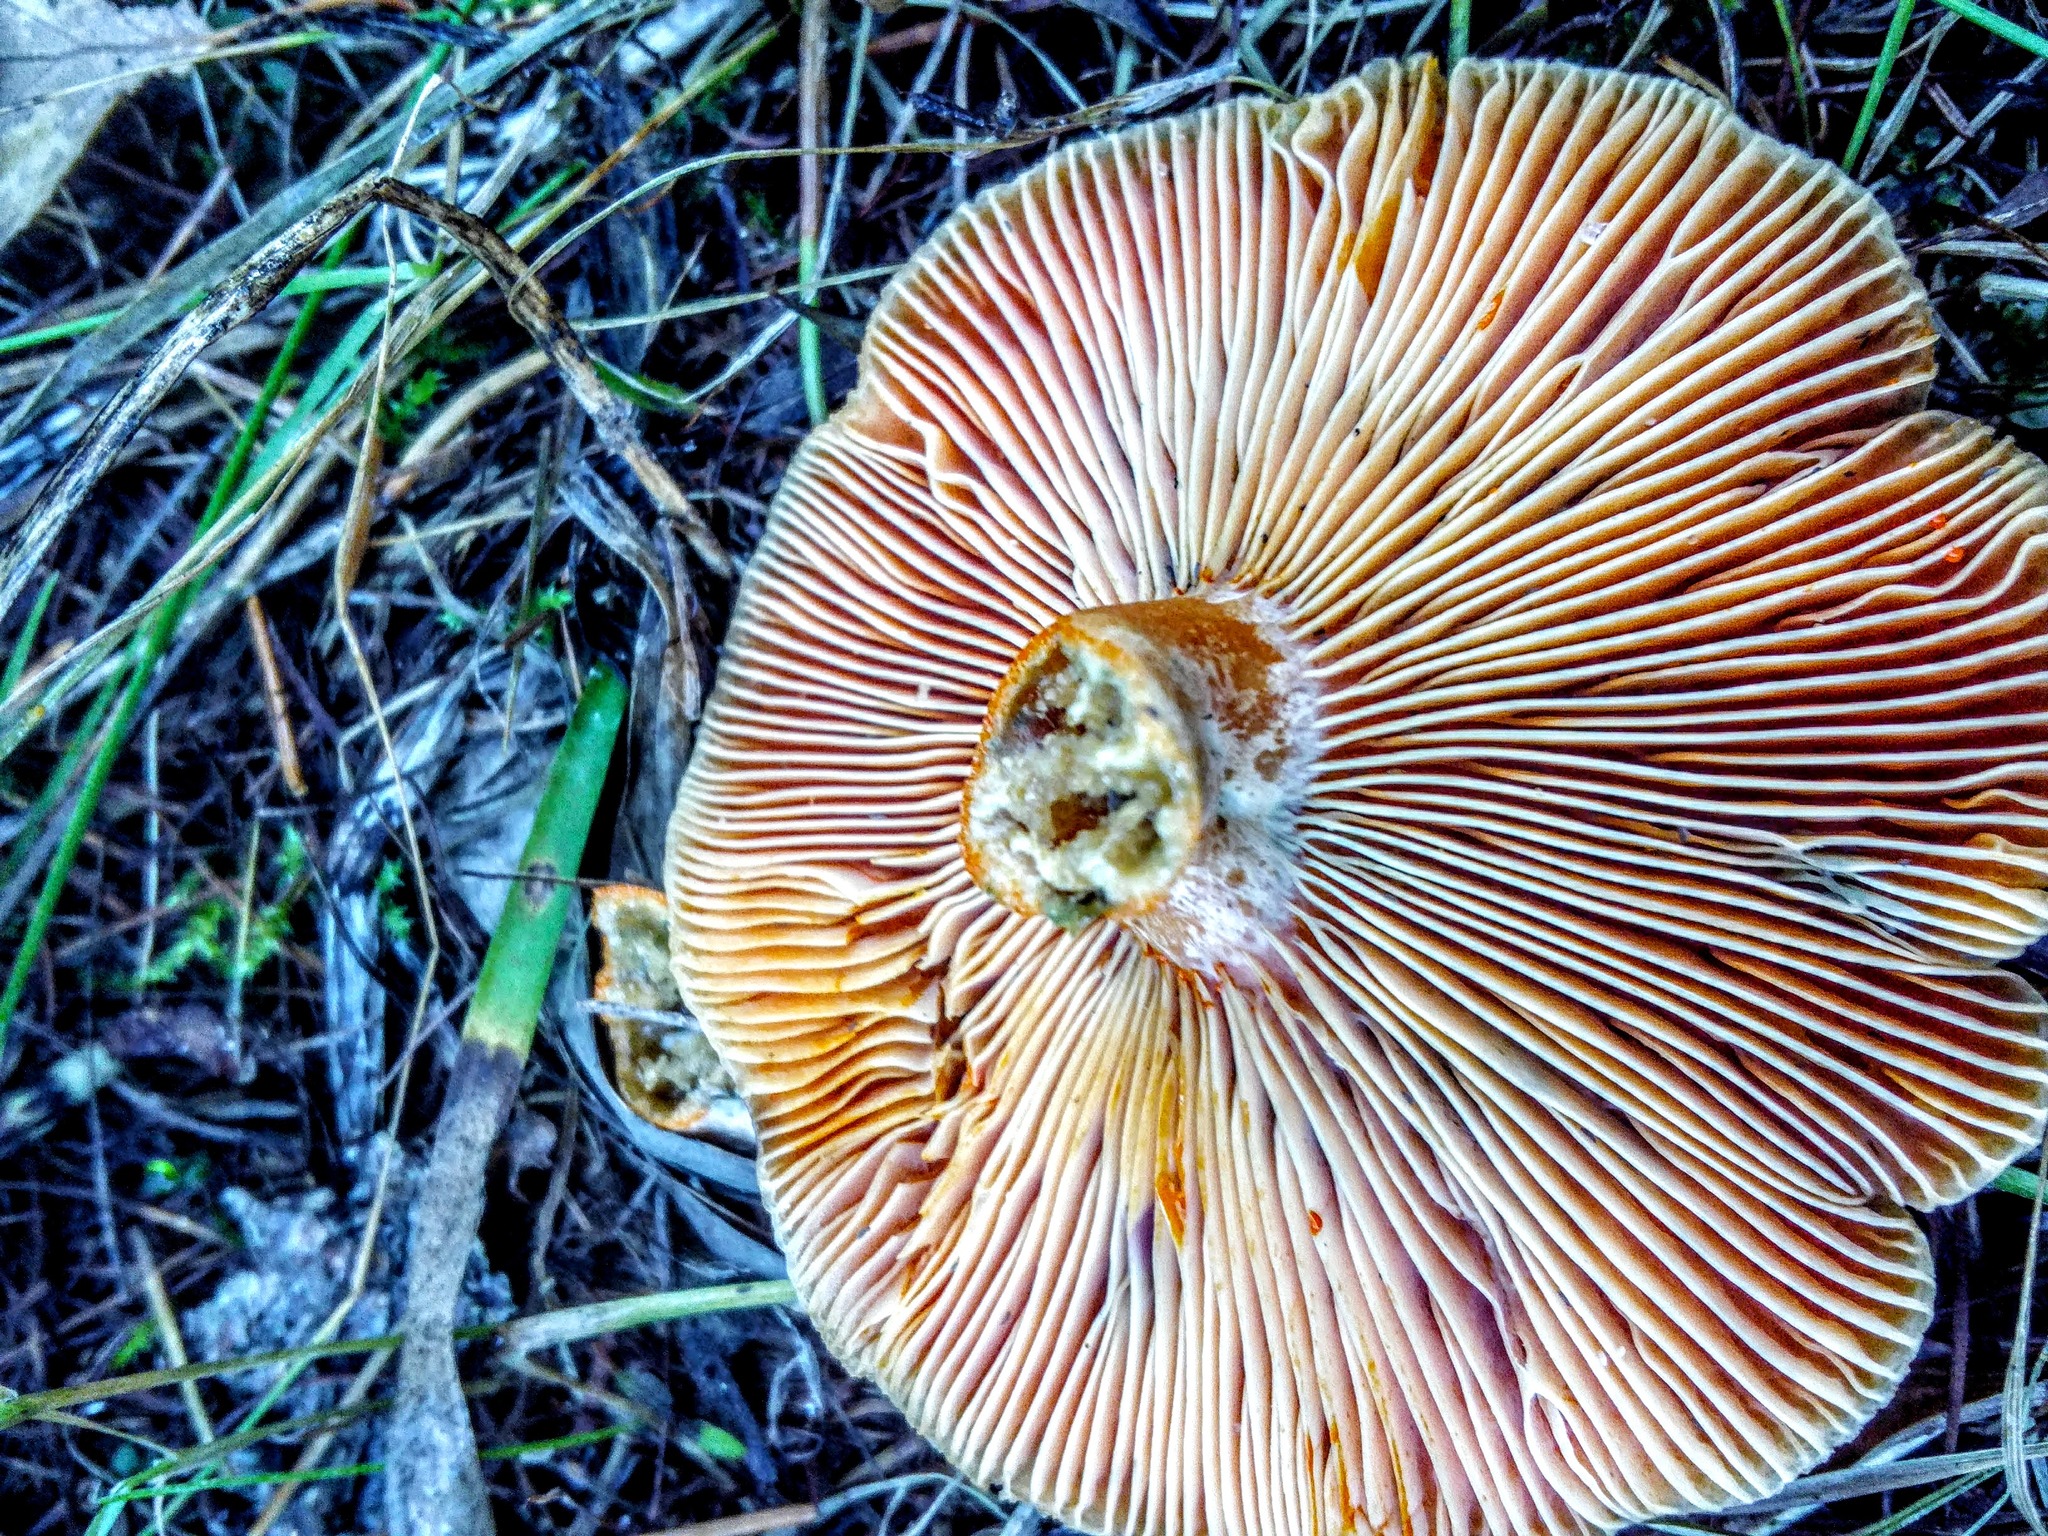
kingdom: Fungi
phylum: Basidiomycota
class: Agaricomycetes
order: Russulales
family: Russulaceae
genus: Lactarius
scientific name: Lactarius deliciosus
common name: Saffron milk-cap
